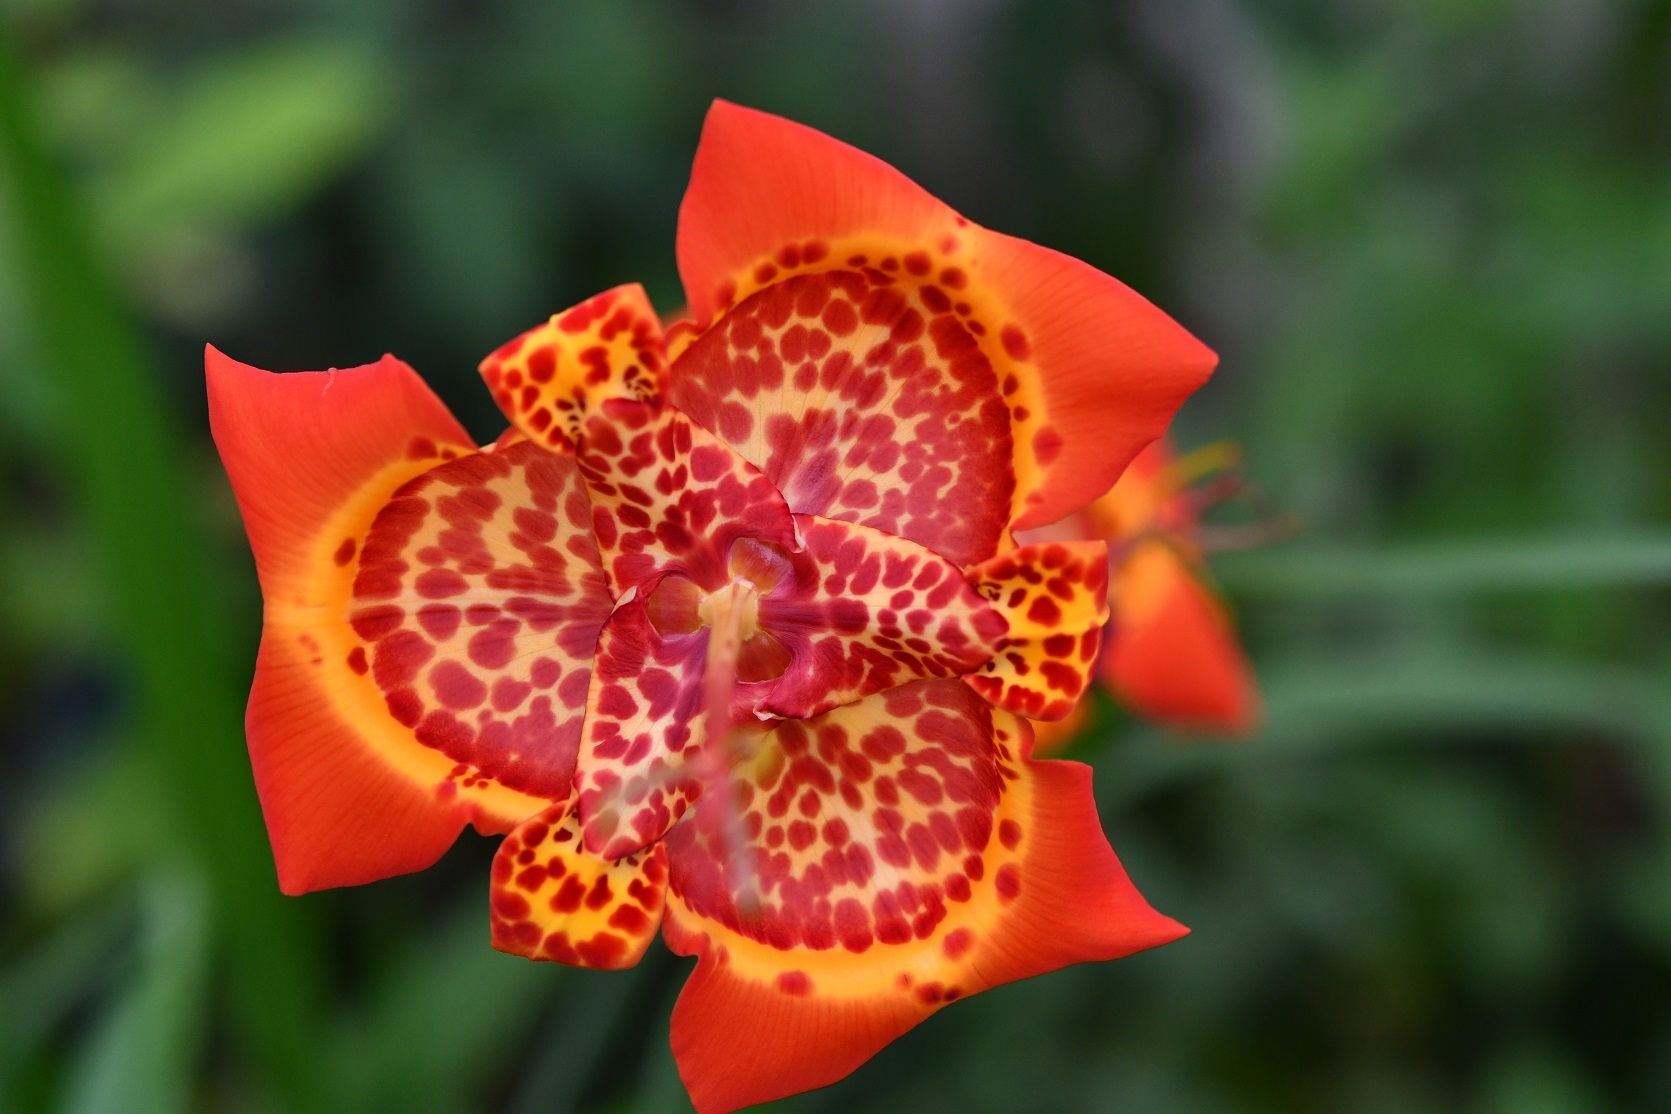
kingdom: Plantae
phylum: Tracheophyta
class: Liliopsida
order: Asparagales
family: Iridaceae
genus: Tigridia
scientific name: Tigridia pavonia
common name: Peacock-flower
